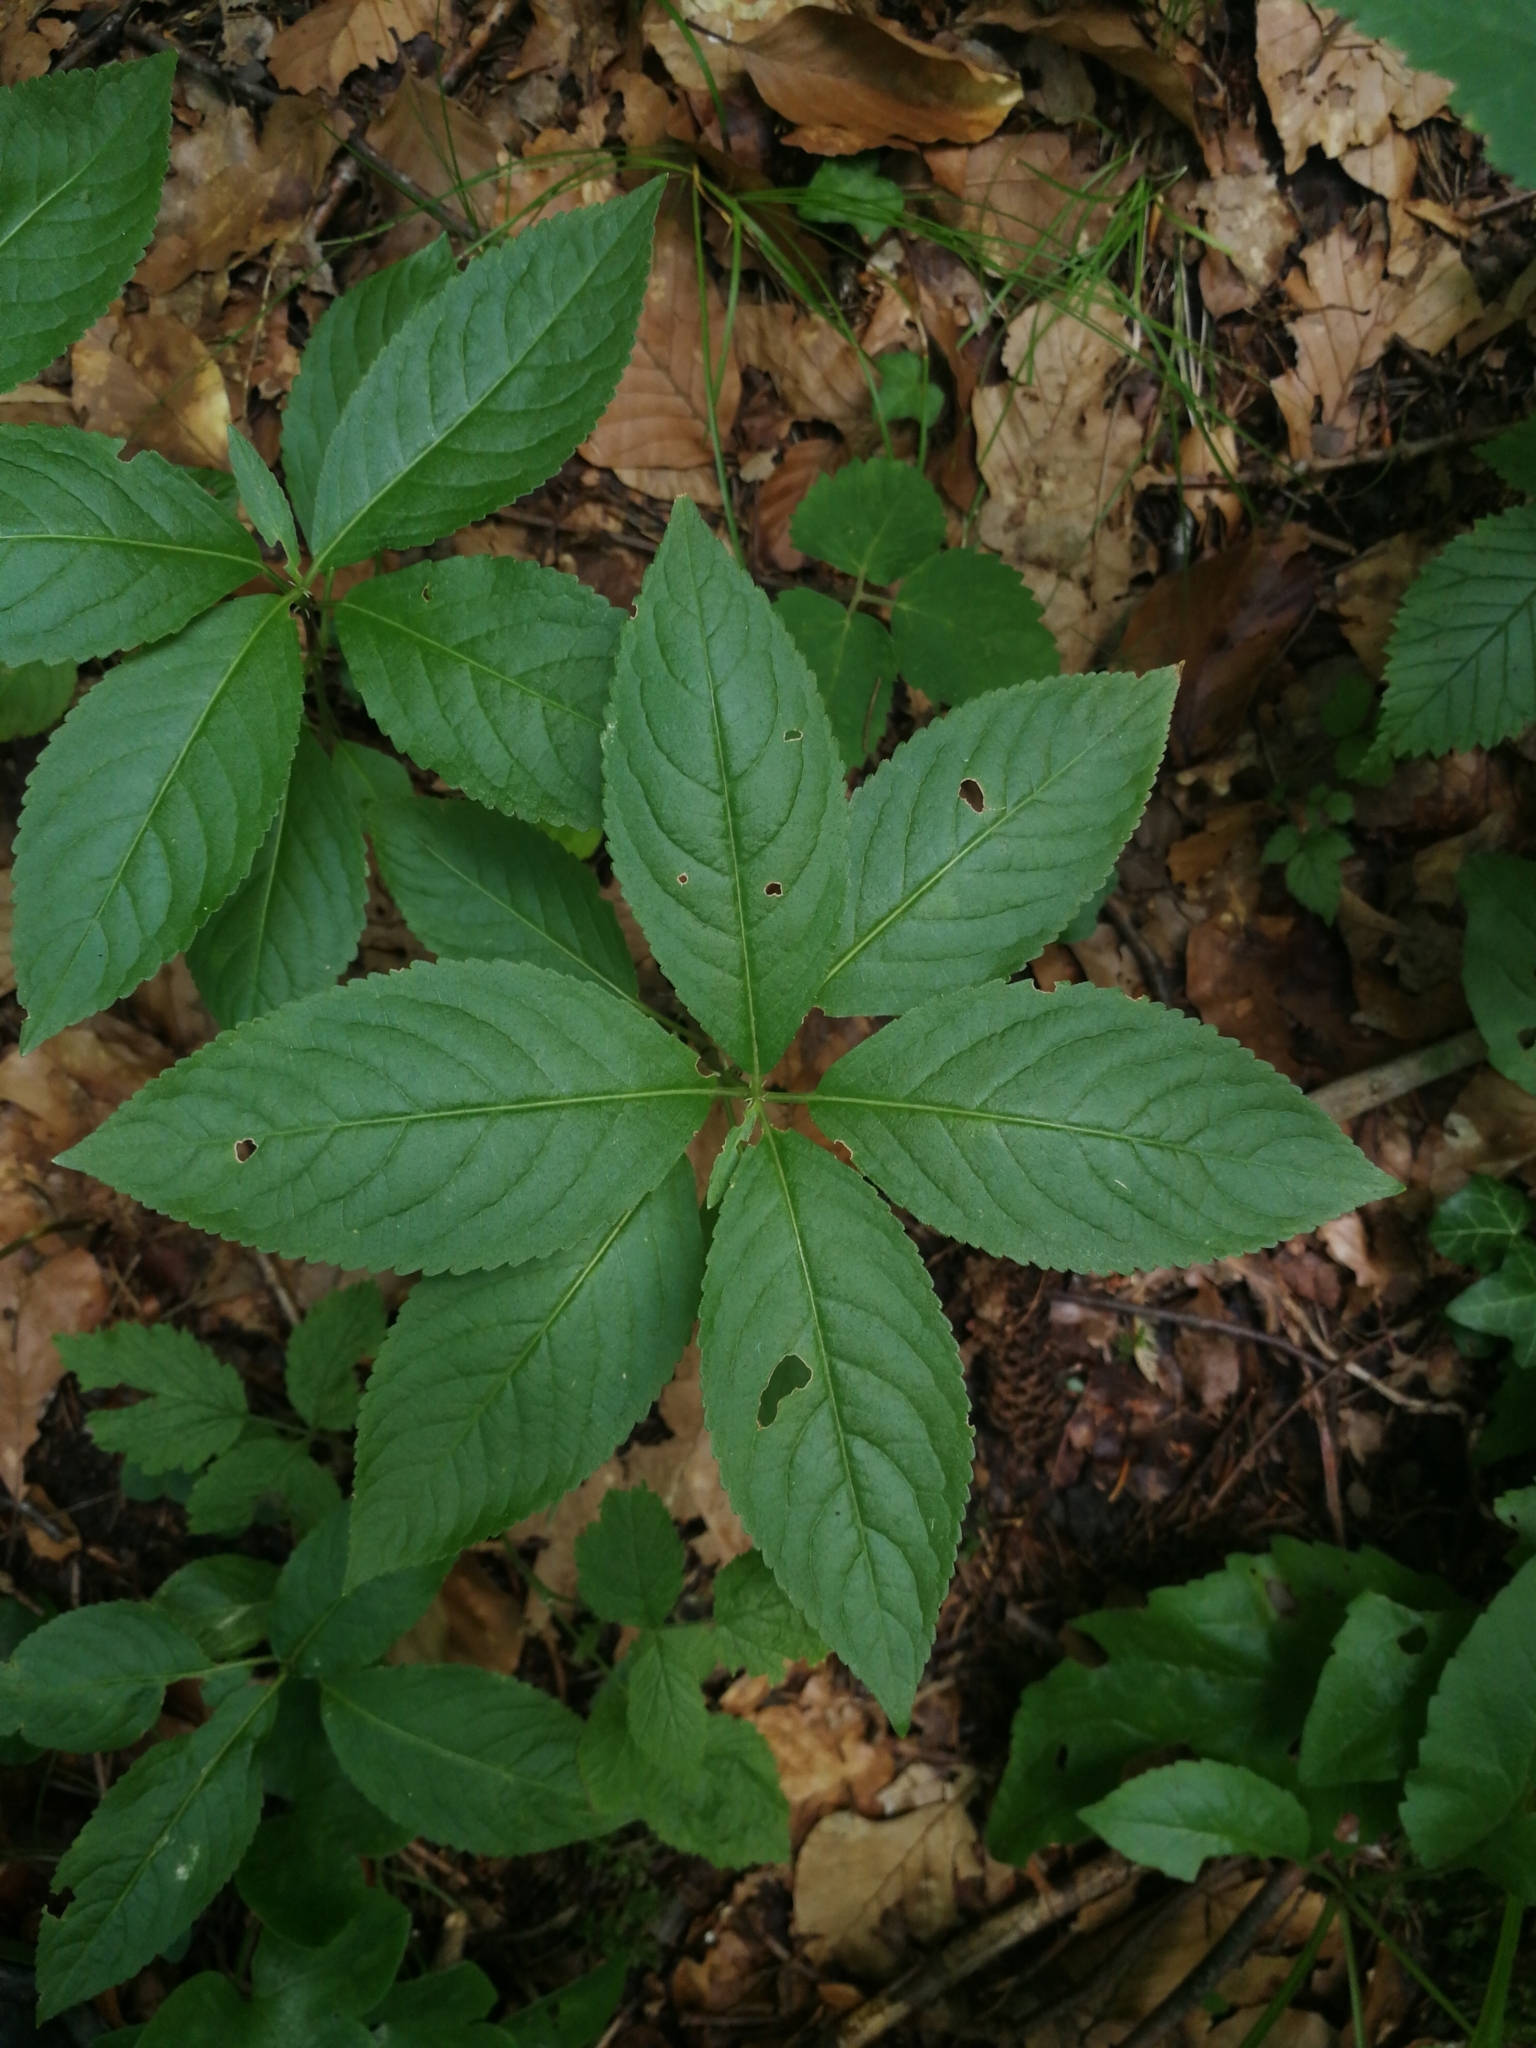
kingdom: Plantae
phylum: Tracheophyta
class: Magnoliopsida
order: Malpighiales
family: Euphorbiaceae
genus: Mercurialis
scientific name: Mercurialis perennis
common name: Dog mercury
